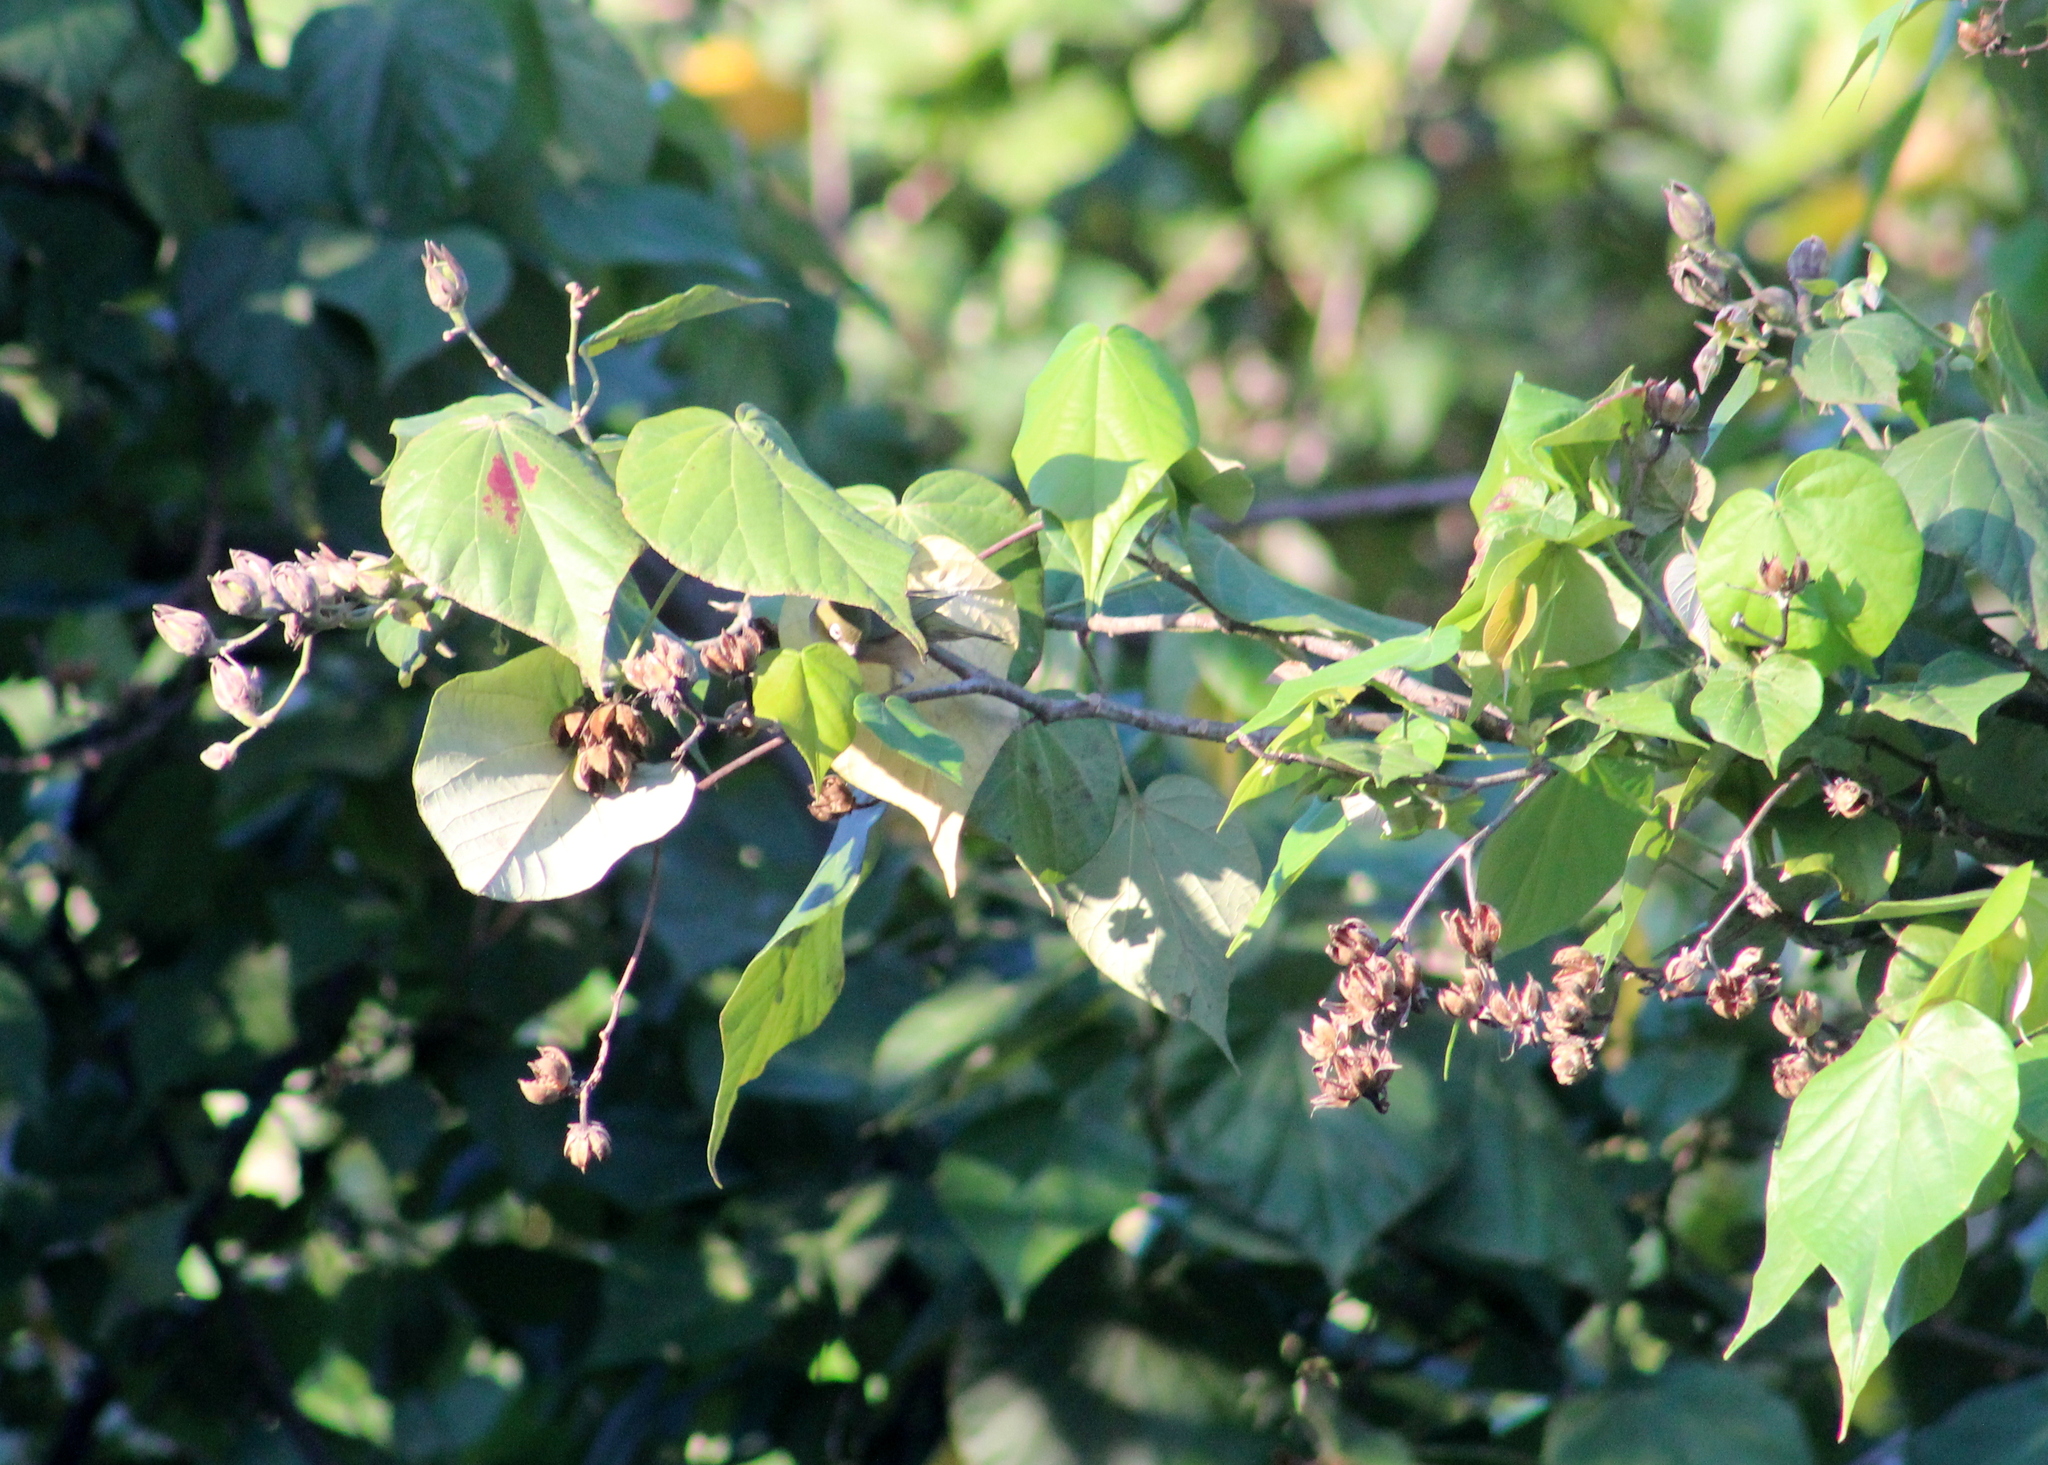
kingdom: Plantae
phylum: Tracheophyta
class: Magnoliopsida
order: Malvales
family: Malvaceae
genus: Talipariti
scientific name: Talipariti tiliaceum
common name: Sea hibiscus
